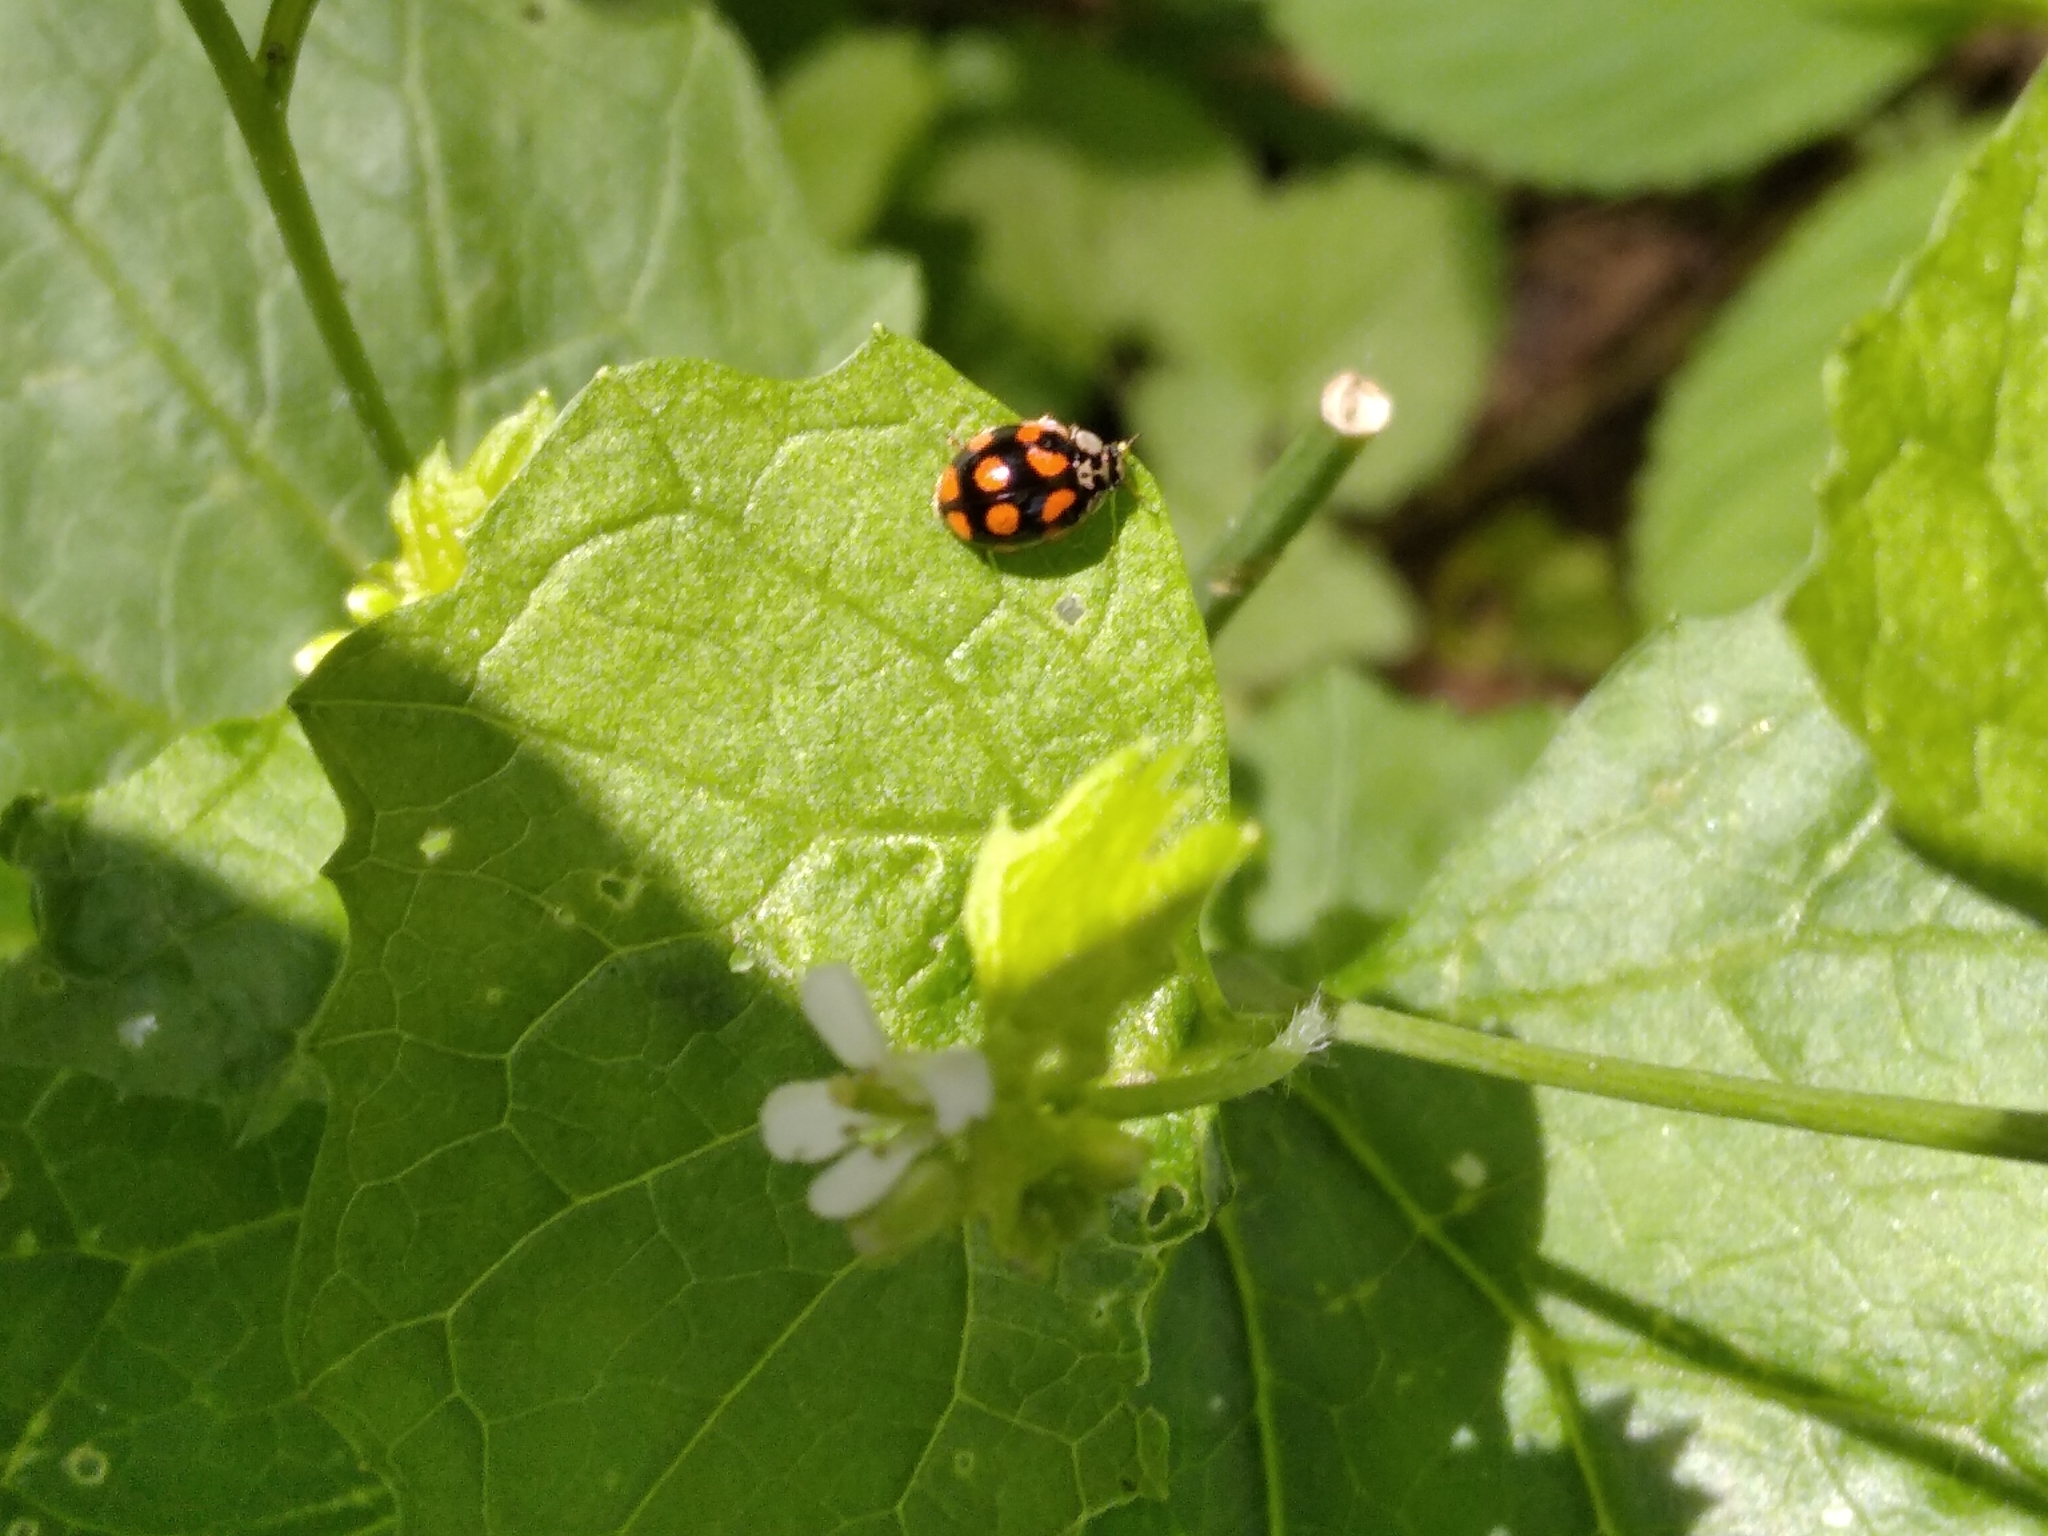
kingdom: Animalia
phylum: Arthropoda
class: Insecta
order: Coleoptera
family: Coccinellidae
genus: Adalia
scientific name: Adalia decempunctata
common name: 10-spot ladybird
